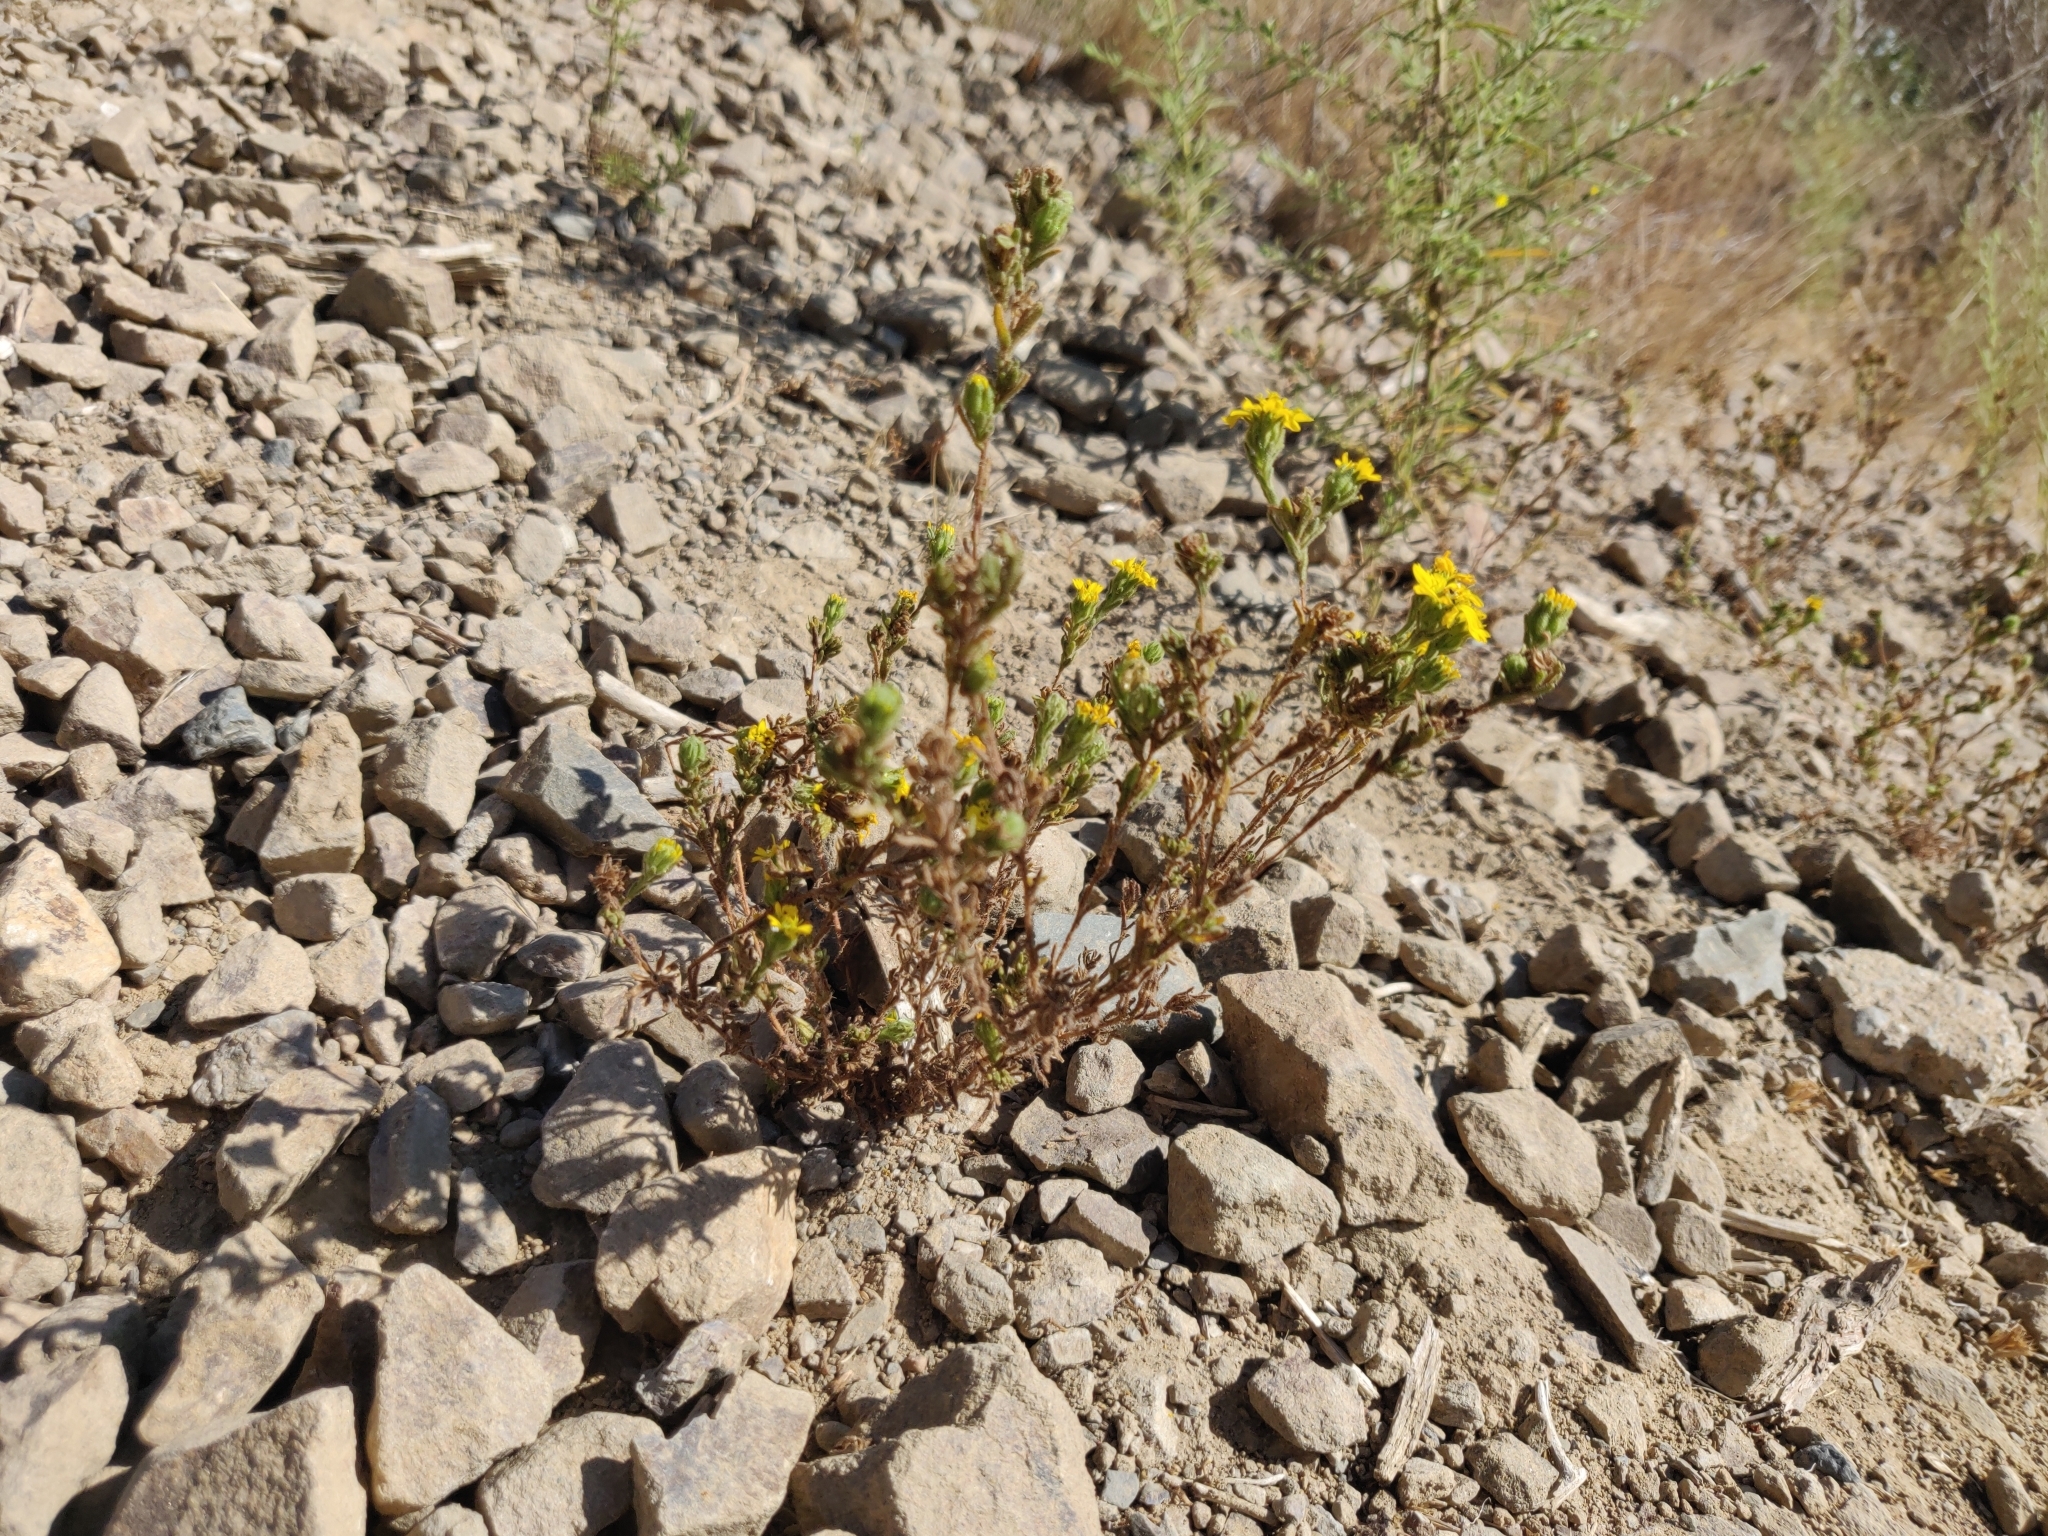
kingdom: Plantae
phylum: Tracheophyta
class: Magnoliopsida
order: Asterales
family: Asteraceae
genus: Deinandra
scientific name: Deinandra corymbosa
